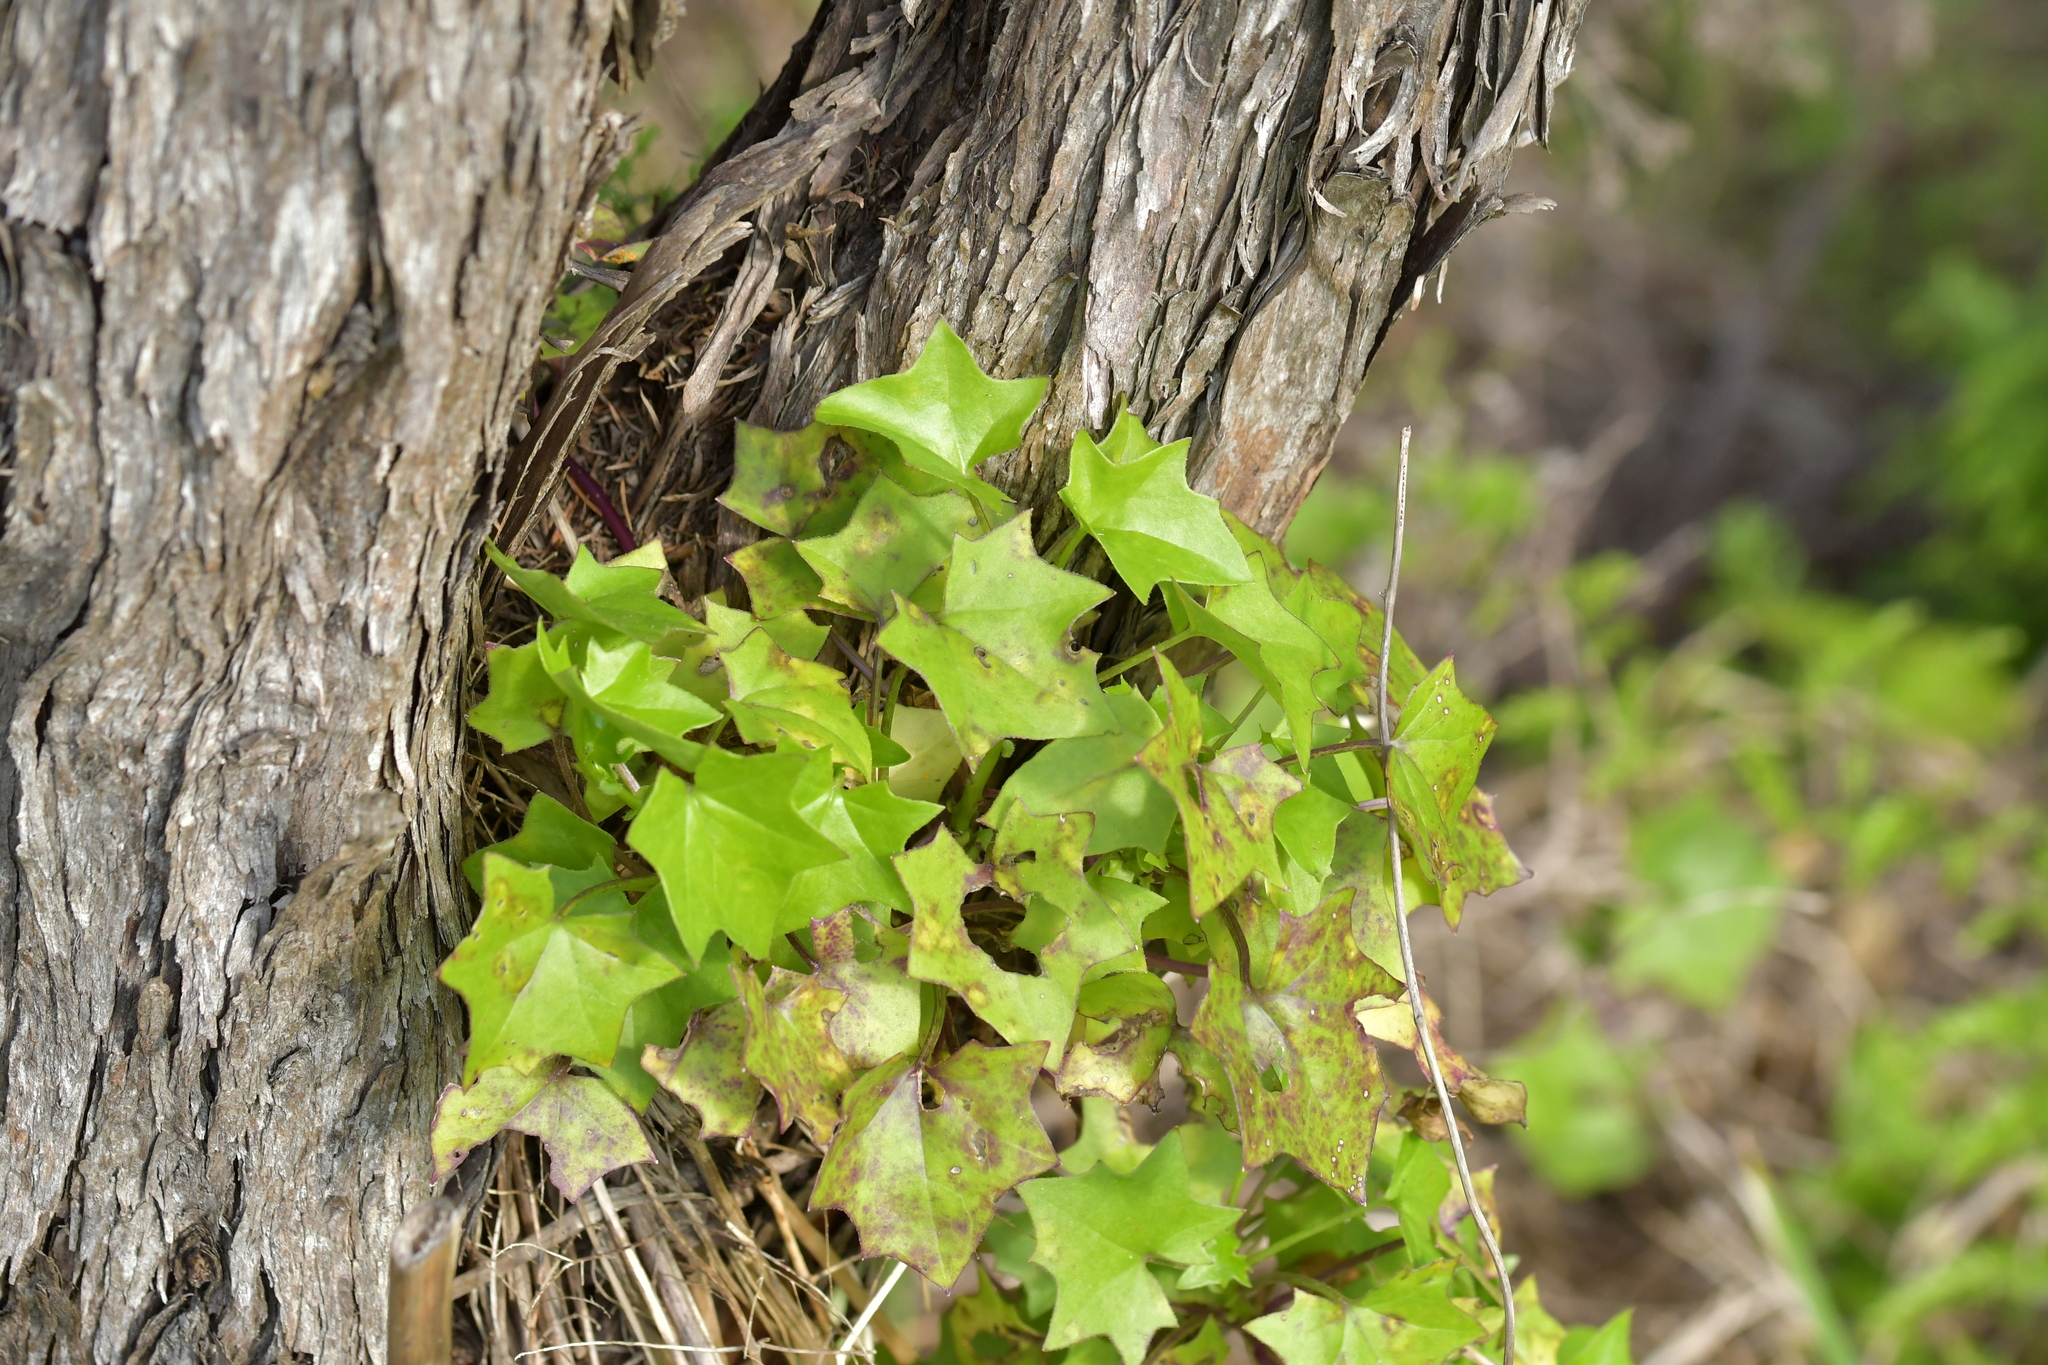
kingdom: Plantae
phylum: Tracheophyta
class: Magnoliopsida
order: Asterales
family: Asteraceae
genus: Delairea
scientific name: Delairea odorata
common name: Cape-ivy
